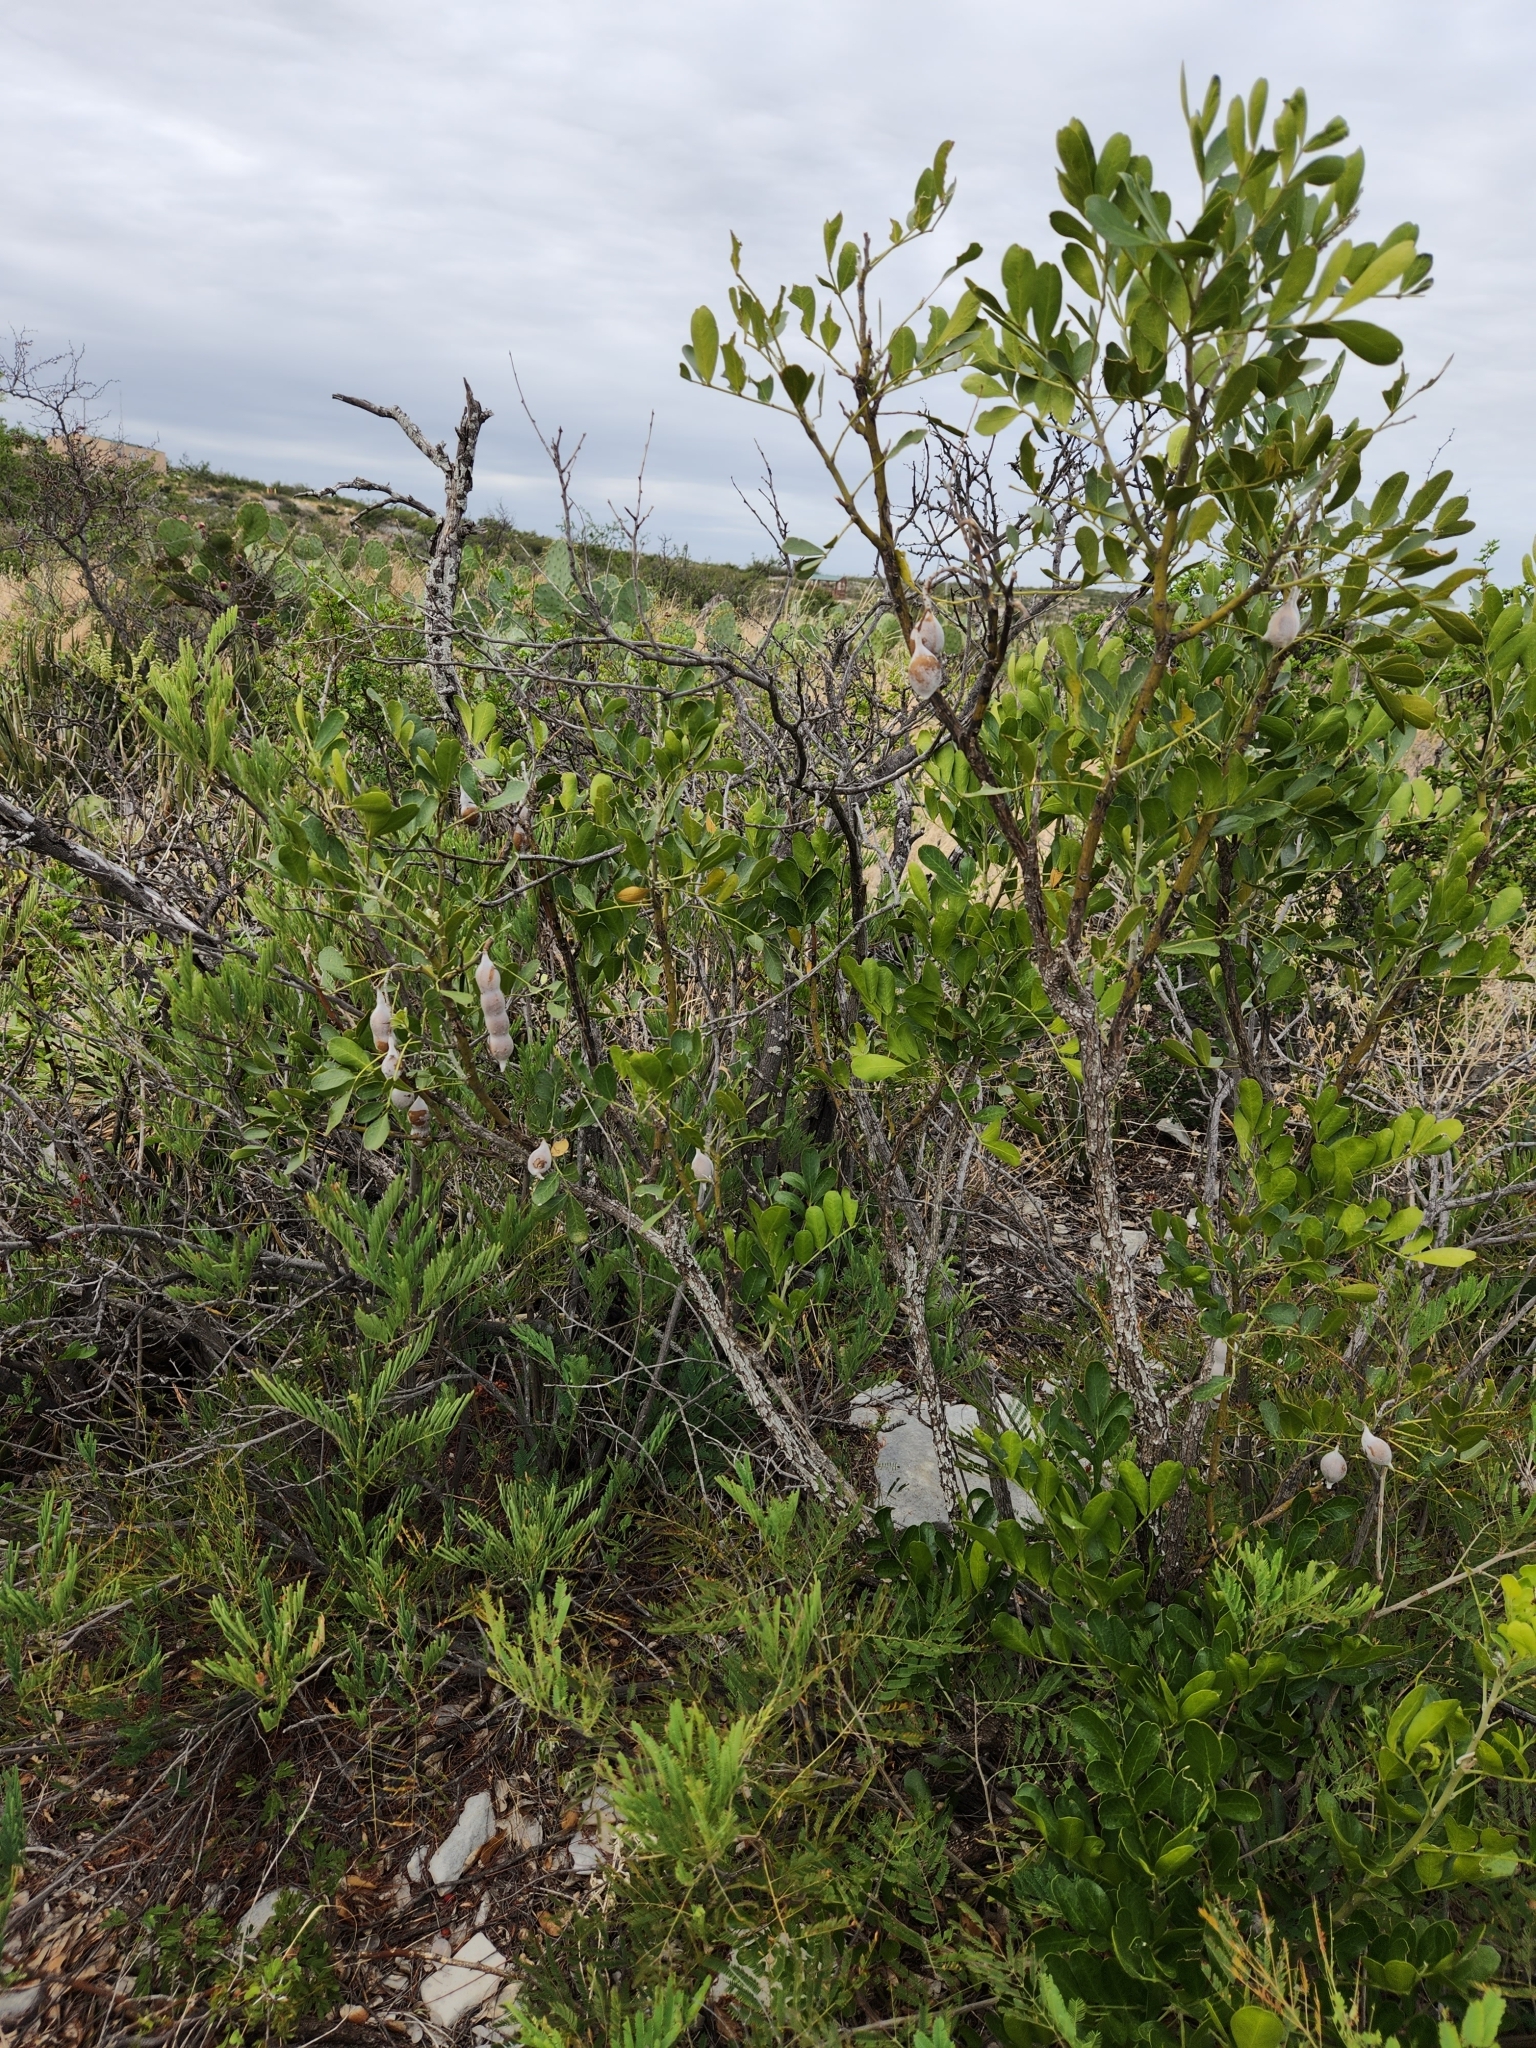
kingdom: Plantae
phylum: Tracheophyta
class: Magnoliopsida
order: Fabales
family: Fabaceae
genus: Dermatophyllum
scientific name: Dermatophyllum secundiflorum
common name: Texas-mountain-laurel
